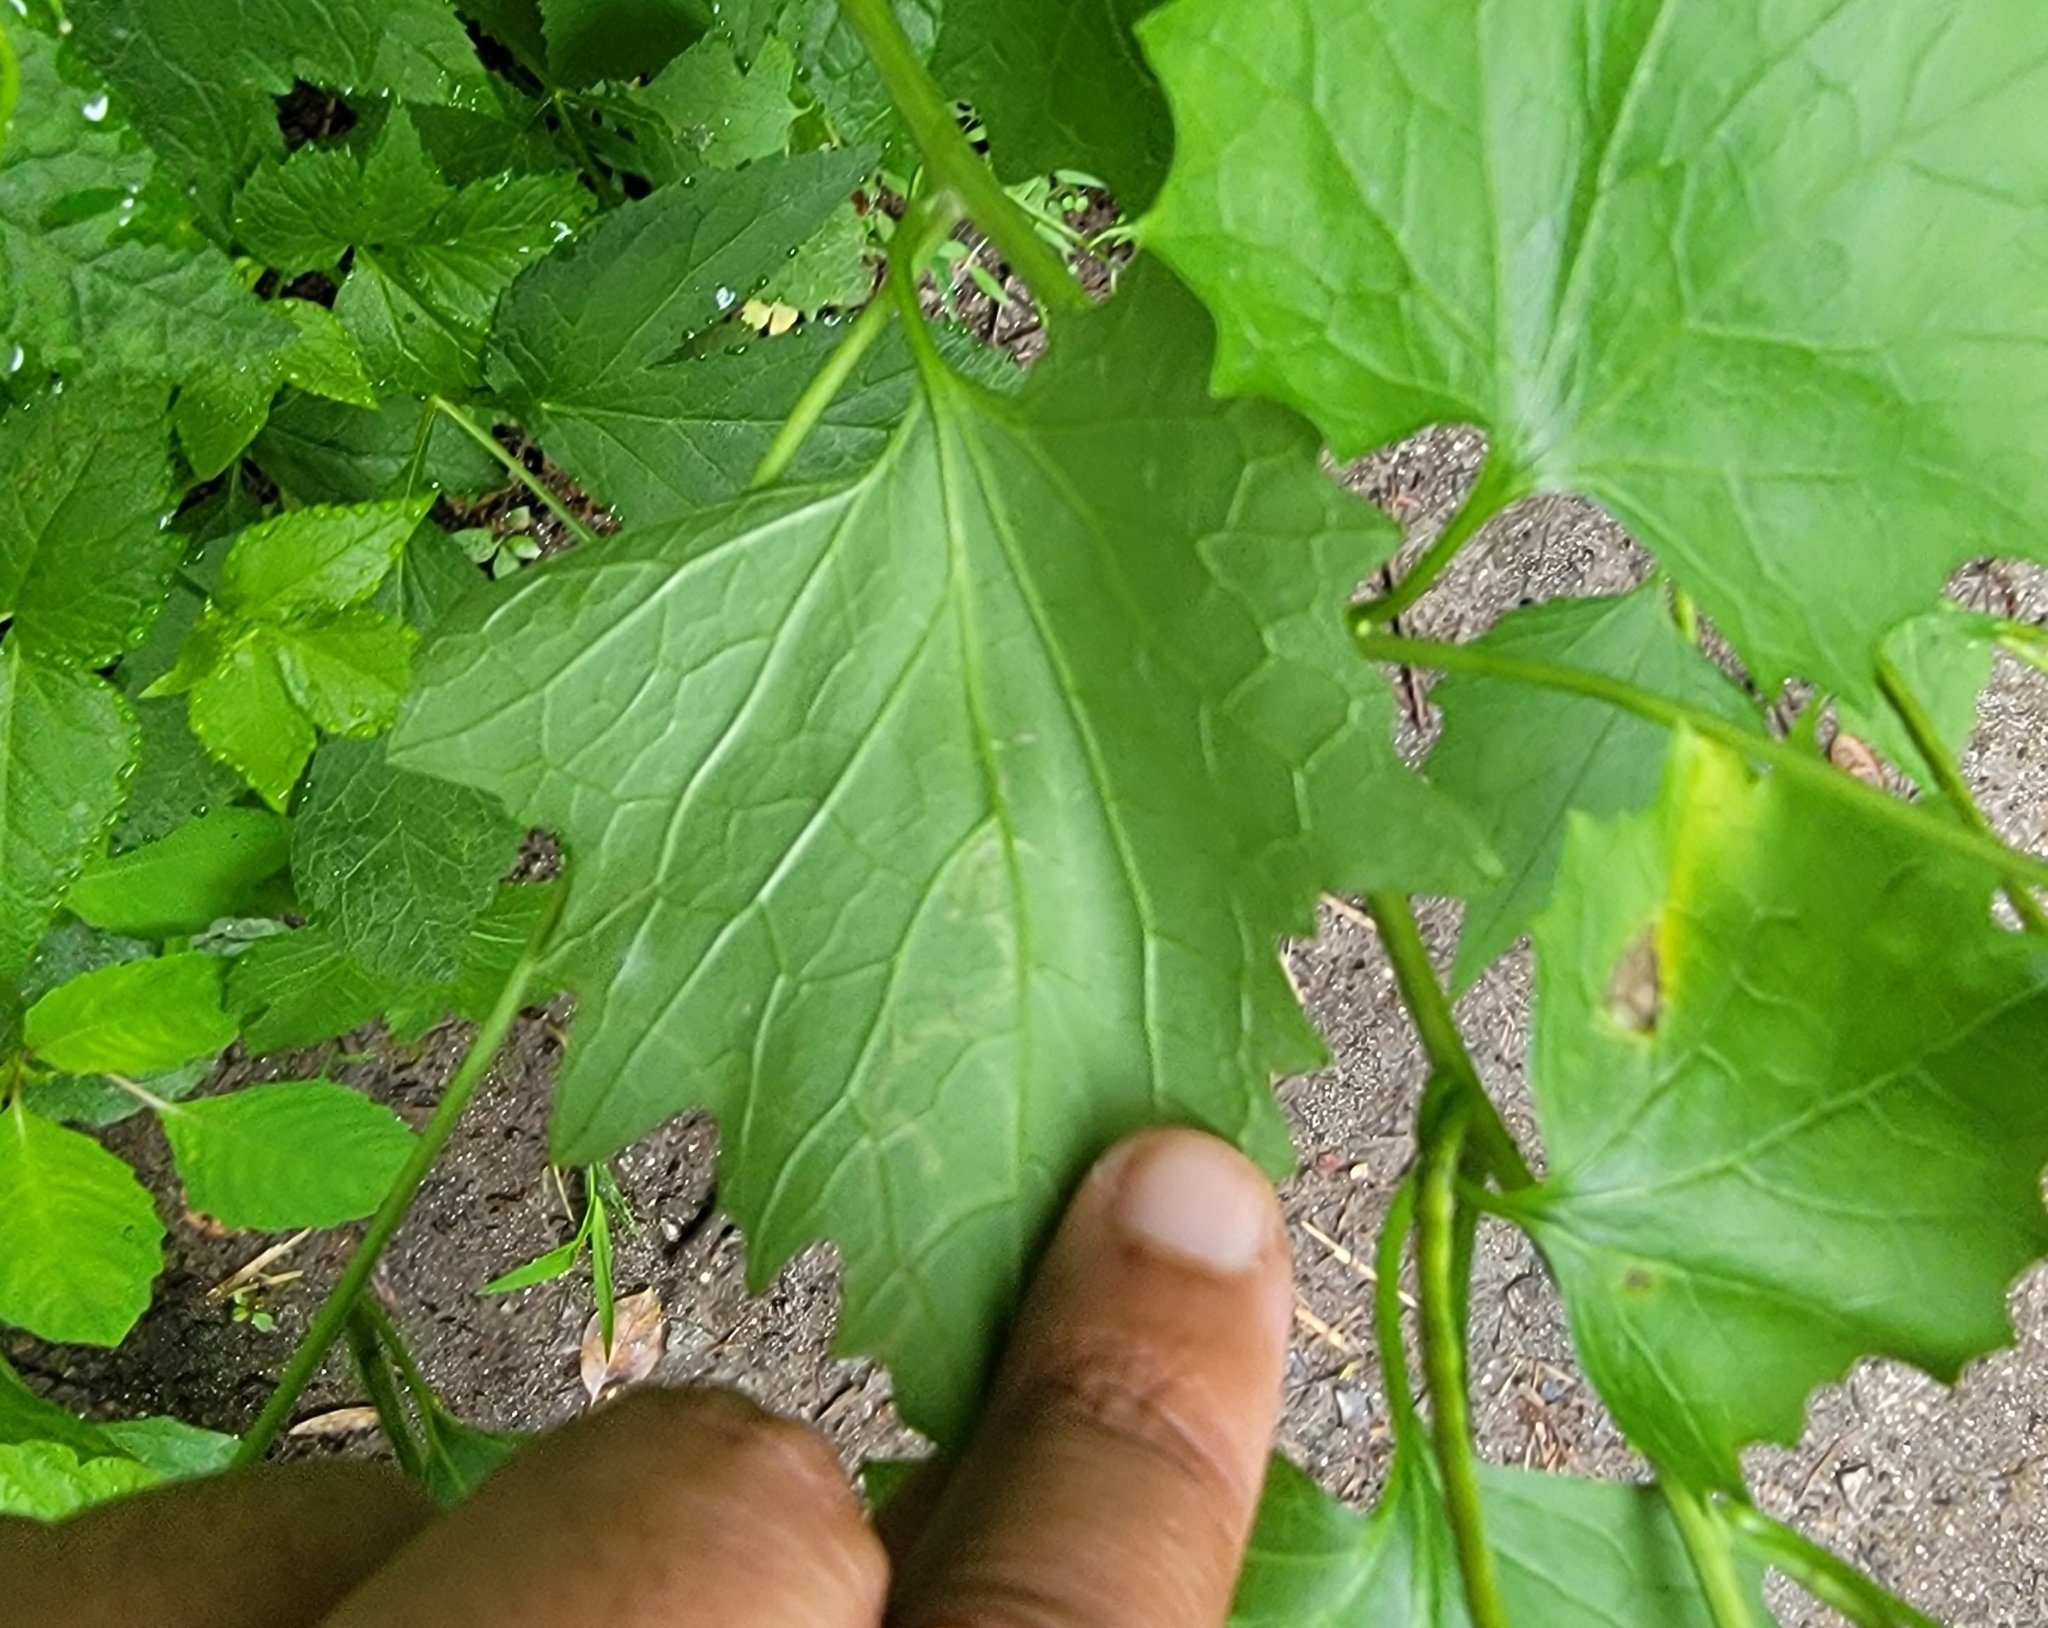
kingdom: Animalia
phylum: Arthropoda
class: Insecta
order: Diptera
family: Agromyzidae
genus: Liriomyza
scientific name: Liriomyza brassicae
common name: Serpentine leaf miner
